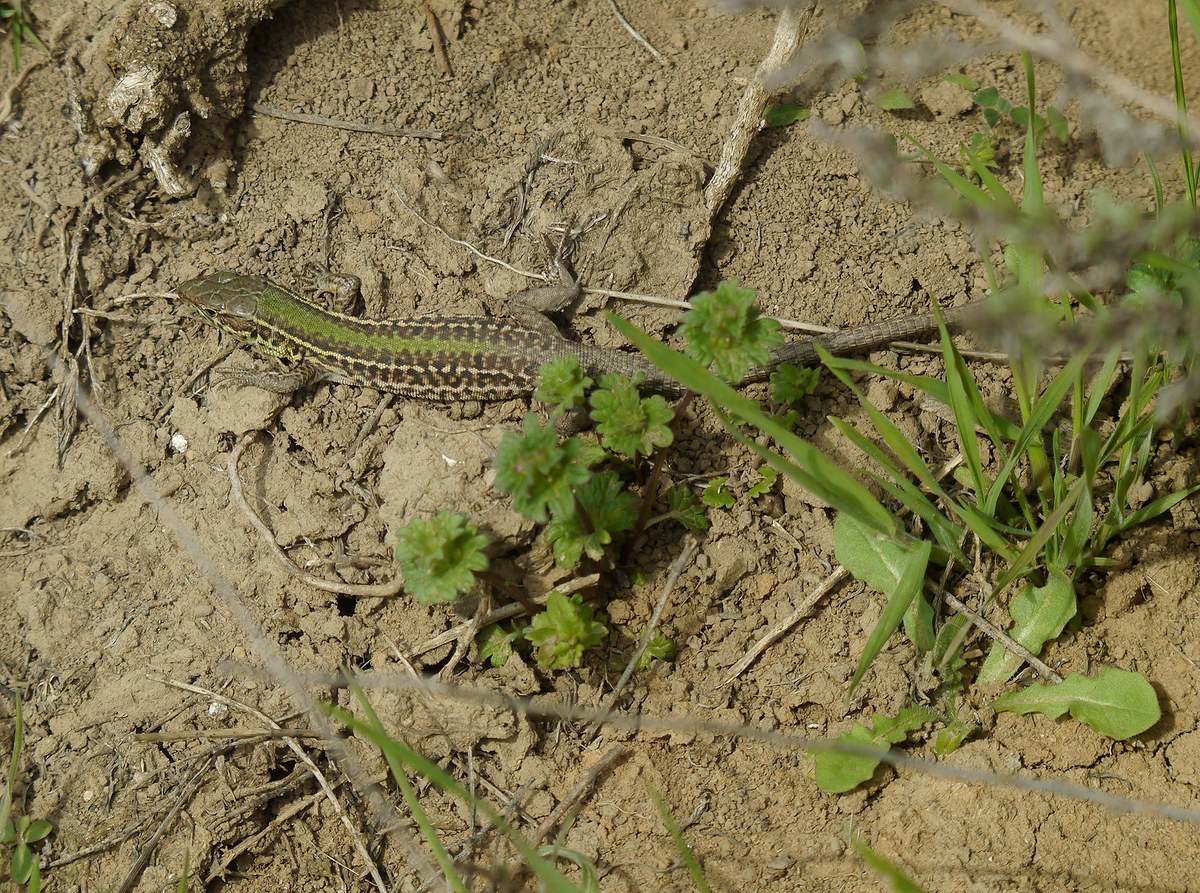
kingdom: Animalia
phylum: Chordata
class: Squamata
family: Lacertidae
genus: Podarcis
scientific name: Podarcis tauricus
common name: Balkan wall lizard
